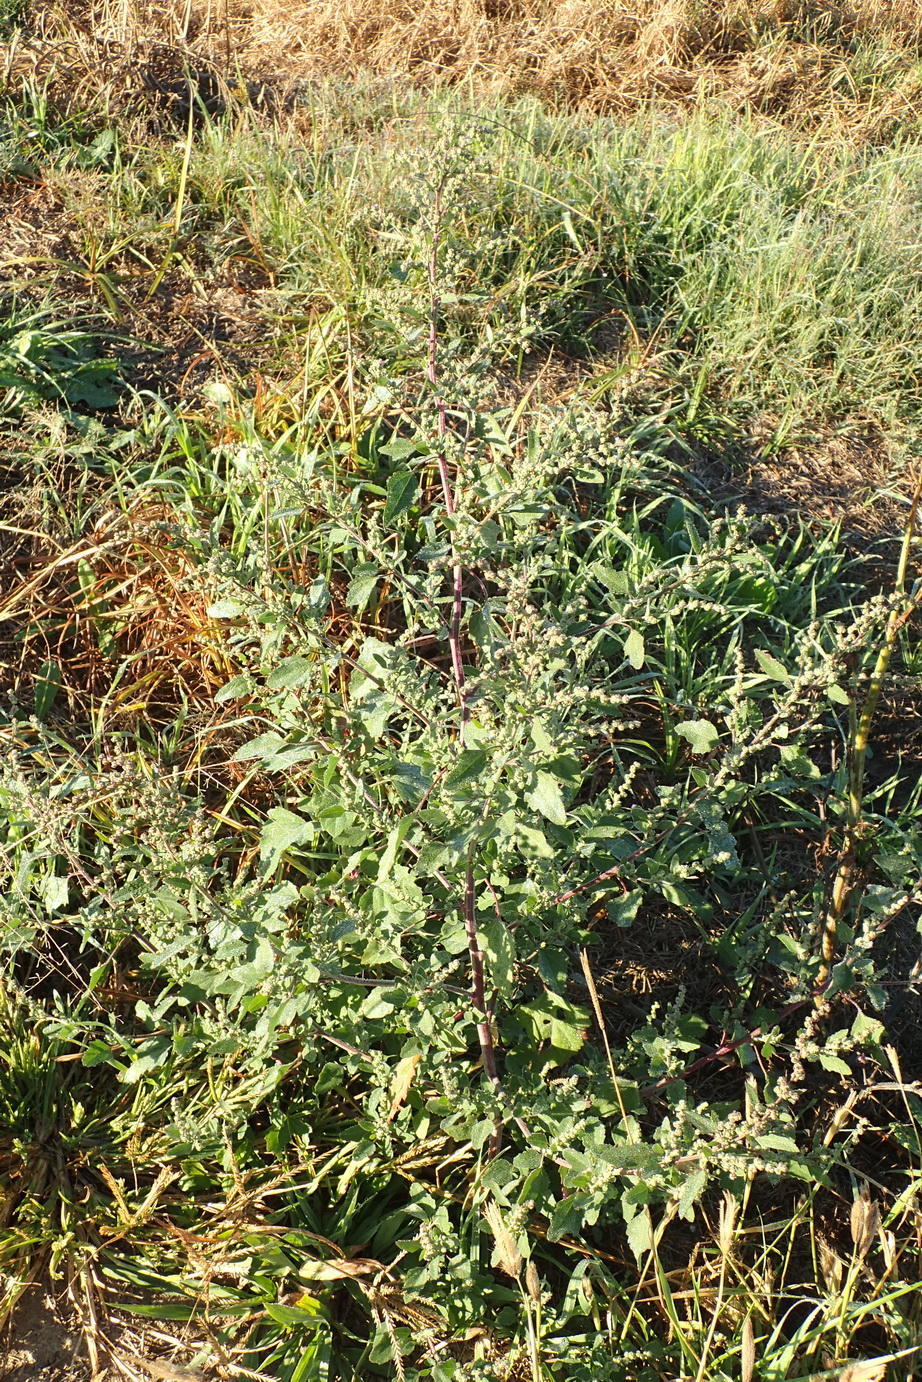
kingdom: Plantae
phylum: Tracheophyta
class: Magnoliopsida
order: Caryophyllales
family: Amaranthaceae
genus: Chenopodium
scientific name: Chenopodium album
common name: Fat-hen
